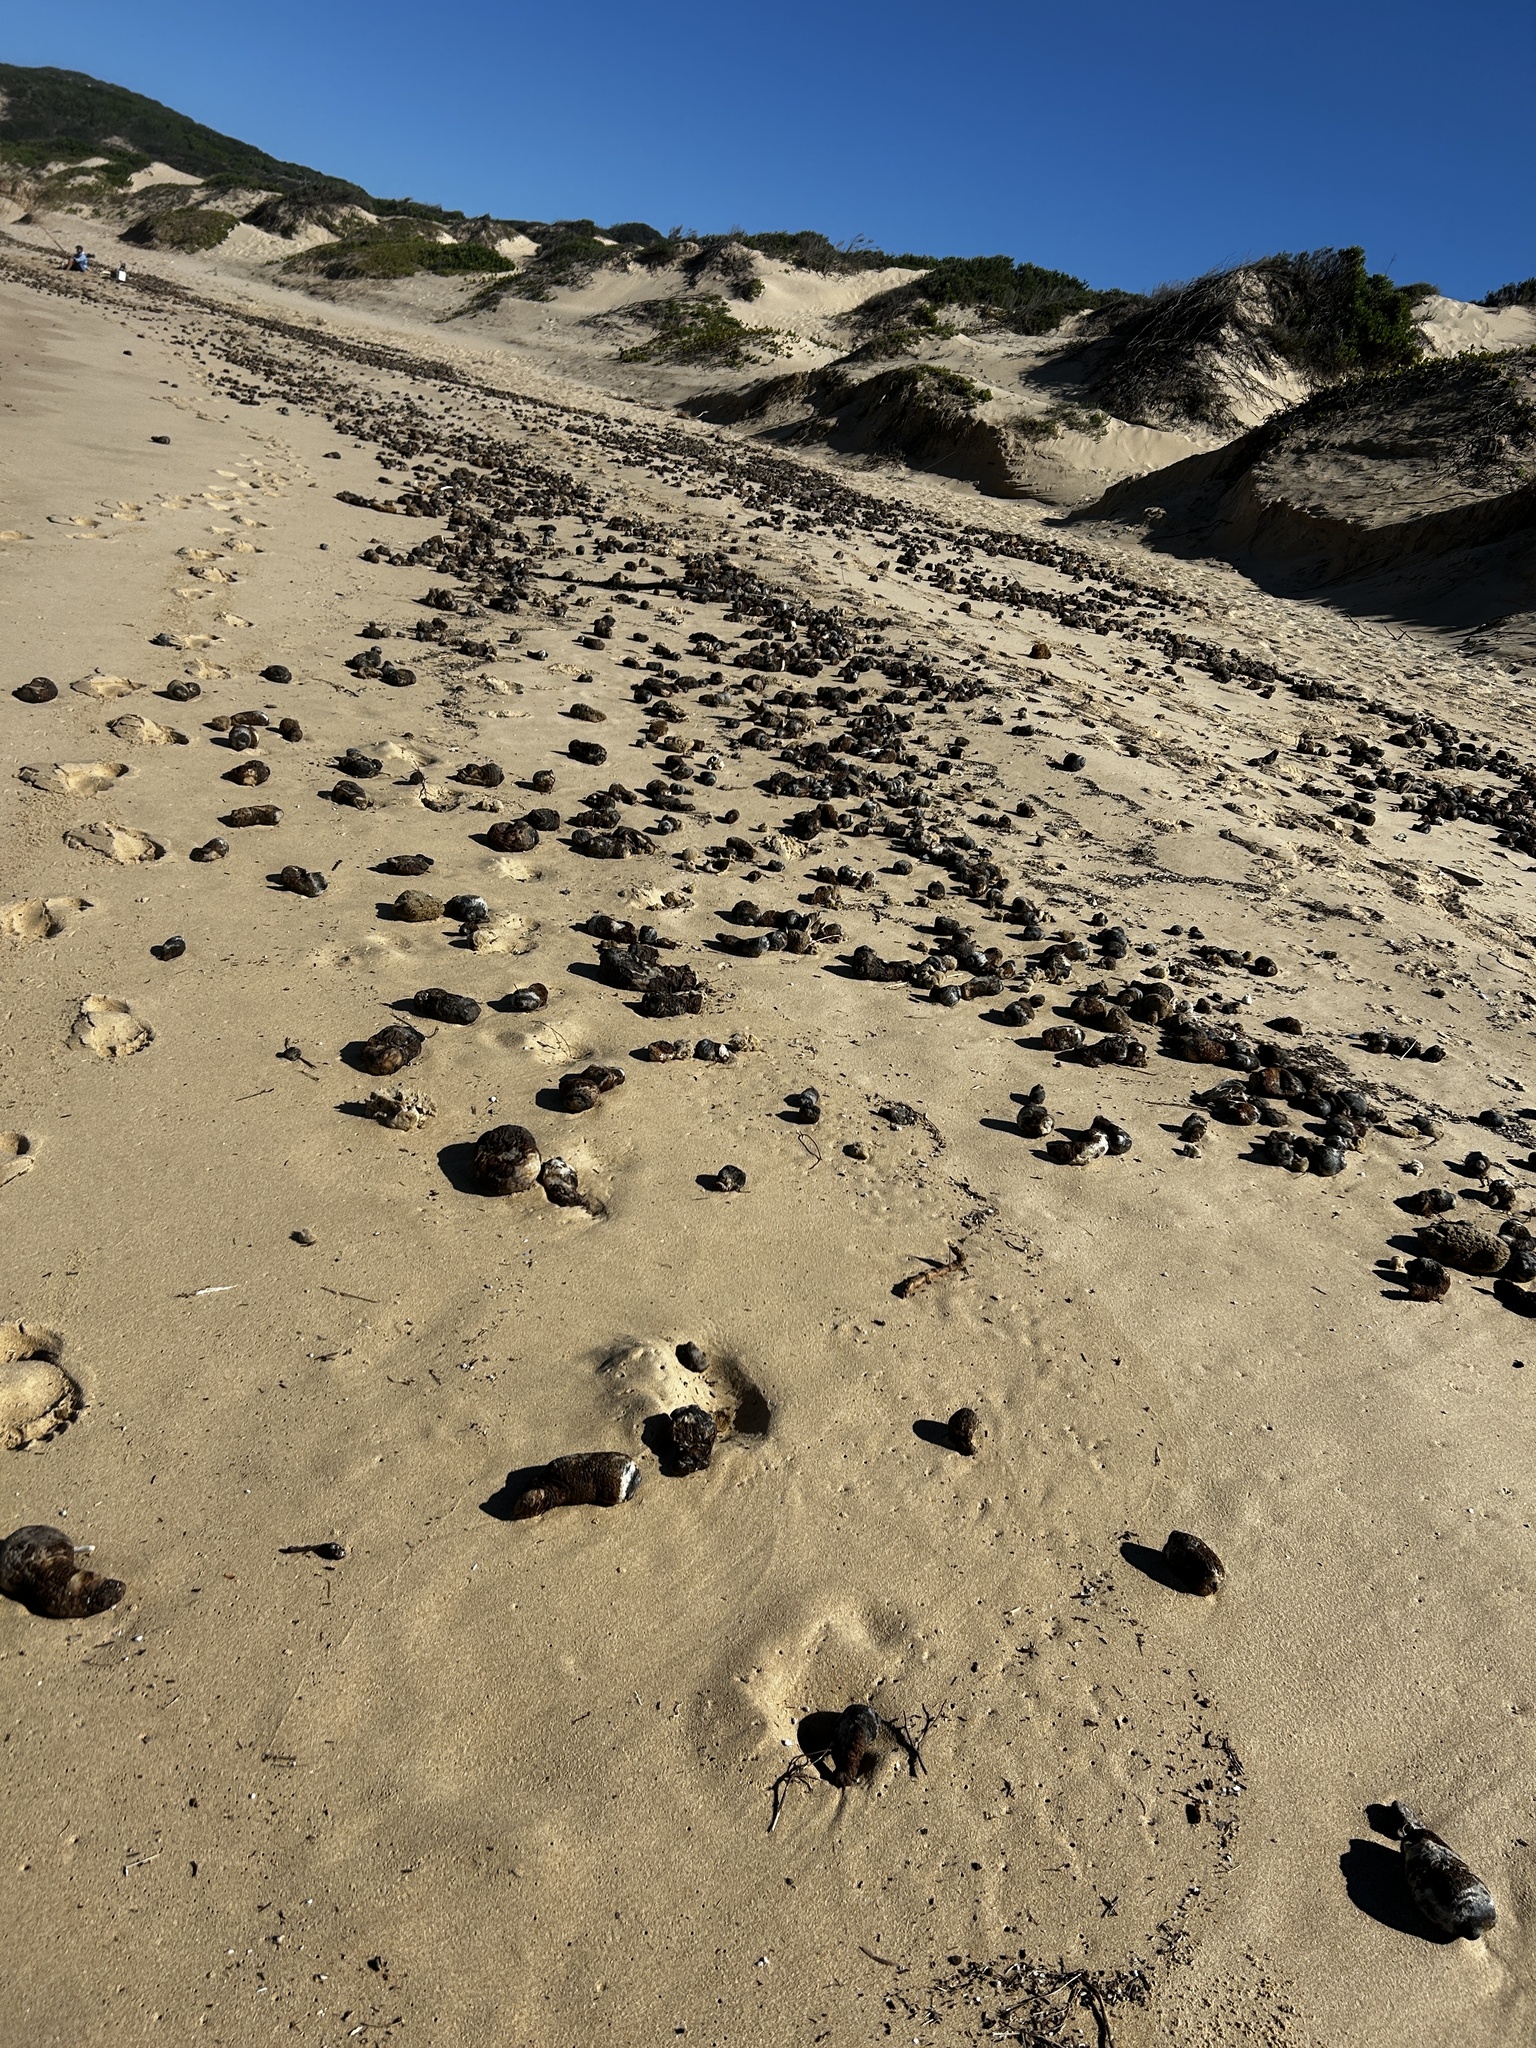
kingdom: Animalia
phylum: Chordata
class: Ascidiacea
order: Stolidobranchia
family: Pyuridae
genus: Pyura
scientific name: Pyura stolonifera
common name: Red bait
